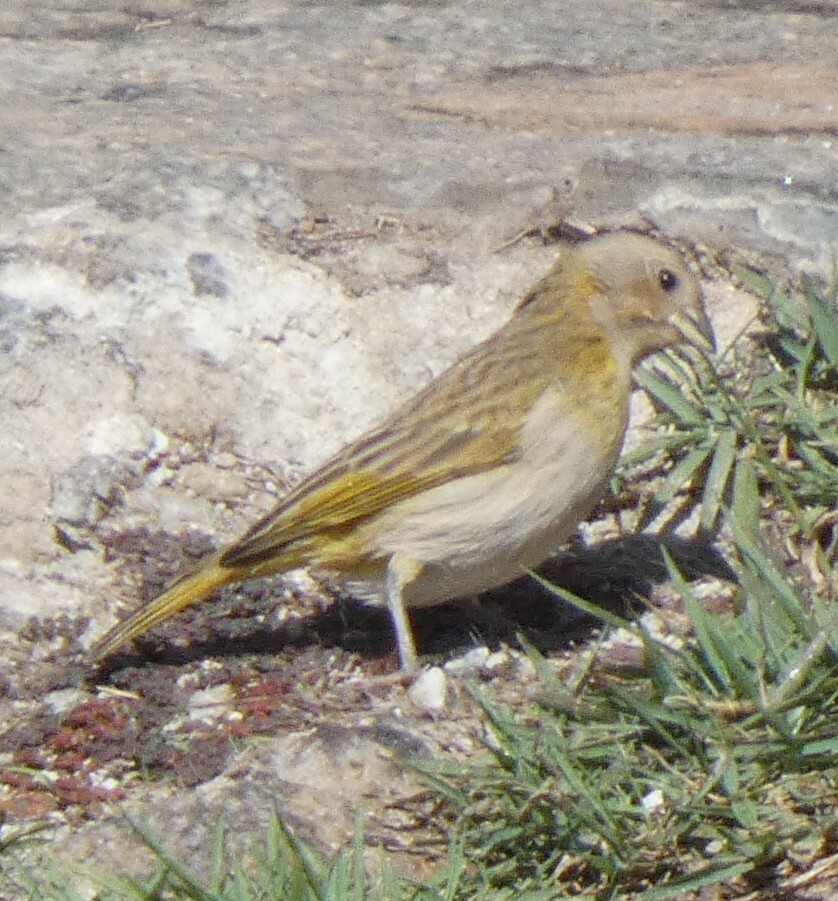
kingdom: Animalia
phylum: Chordata
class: Aves
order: Passeriformes
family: Thraupidae
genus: Sicalis
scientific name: Sicalis flaveola
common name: Saffron finch
